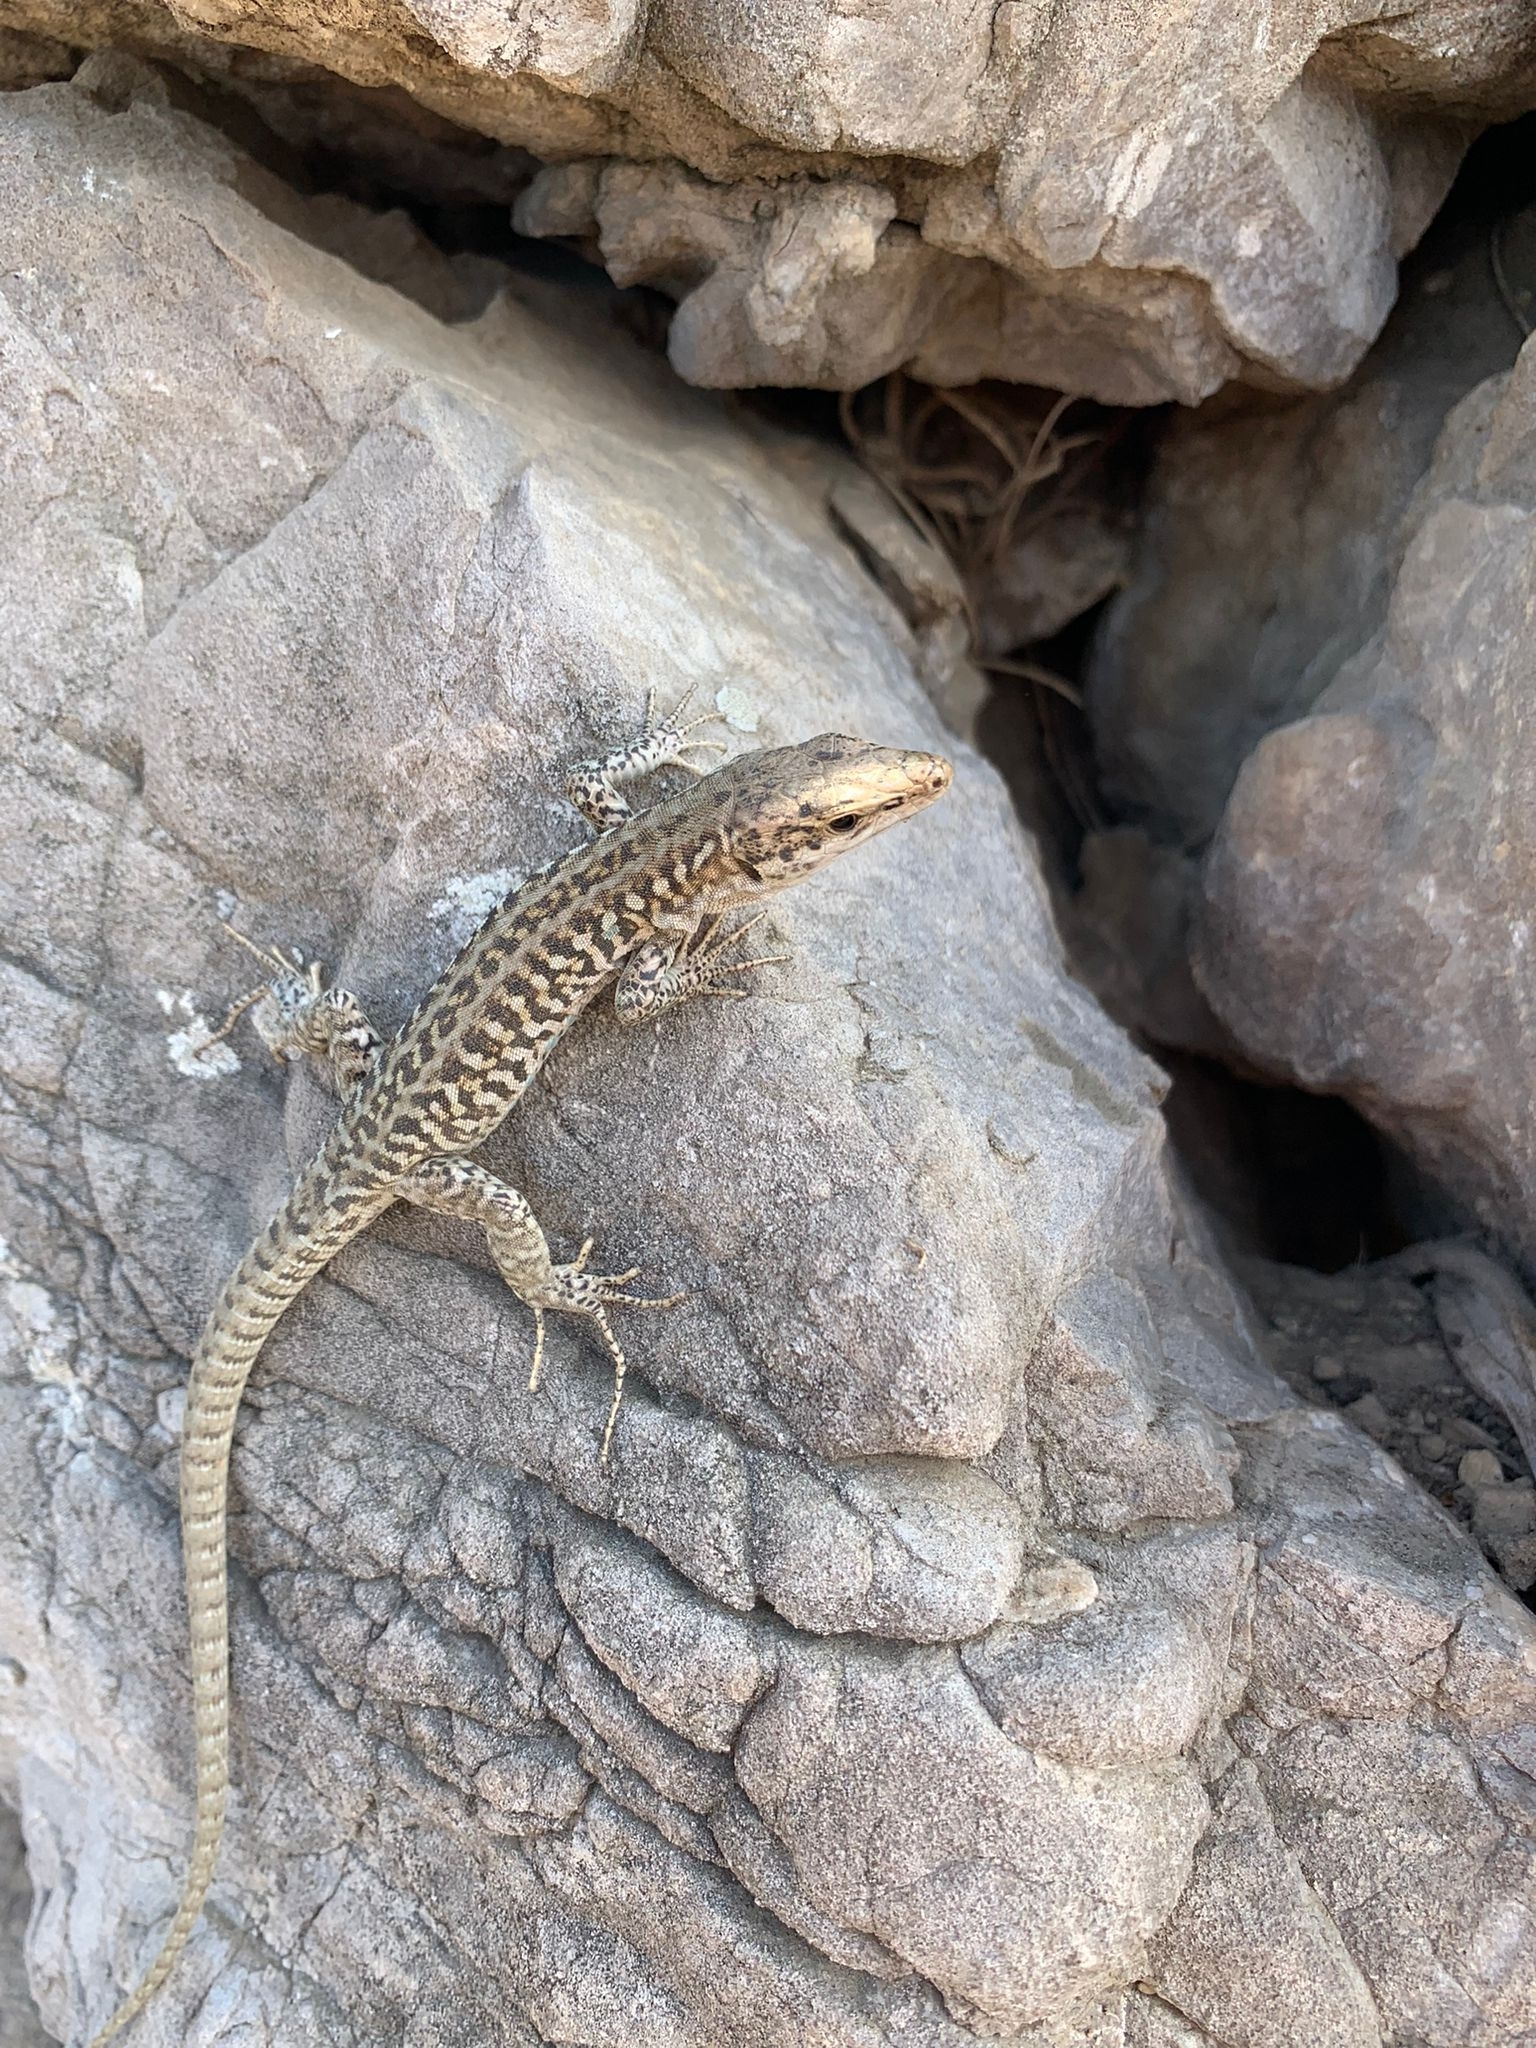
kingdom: Animalia
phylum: Chordata
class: Squamata
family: Lacertidae
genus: Podarcis
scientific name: Podarcis siculus
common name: Italian wall lizard
